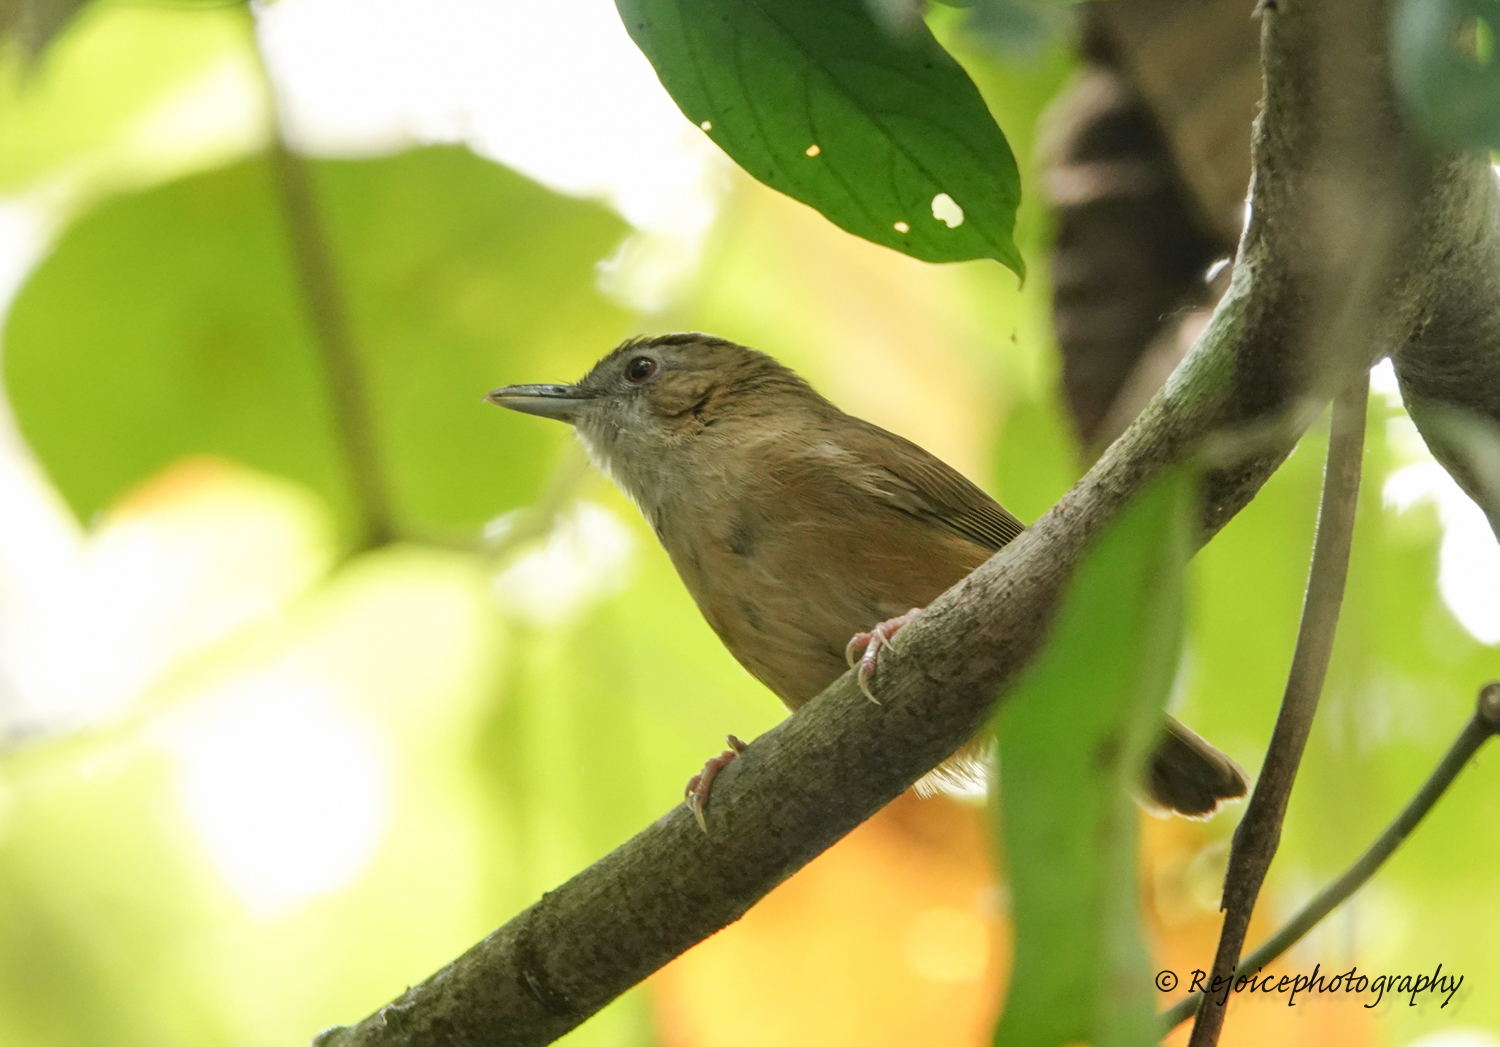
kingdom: Animalia
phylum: Chordata
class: Aves
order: Passeriformes
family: Pellorneidae
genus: Malacocincla
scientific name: Malacocincla abbotti
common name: Abbott's babbler
